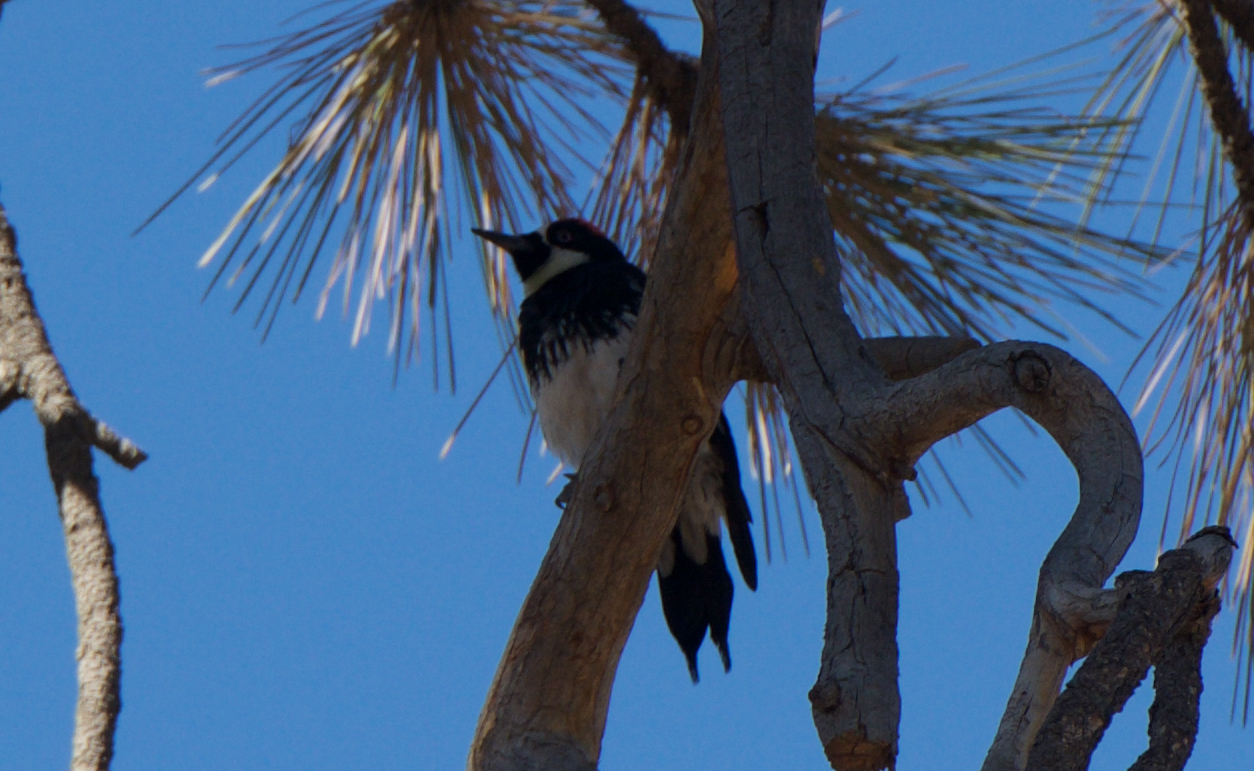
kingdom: Animalia
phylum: Chordata
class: Aves
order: Piciformes
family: Picidae
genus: Melanerpes
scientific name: Melanerpes formicivorus
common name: Acorn woodpecker
